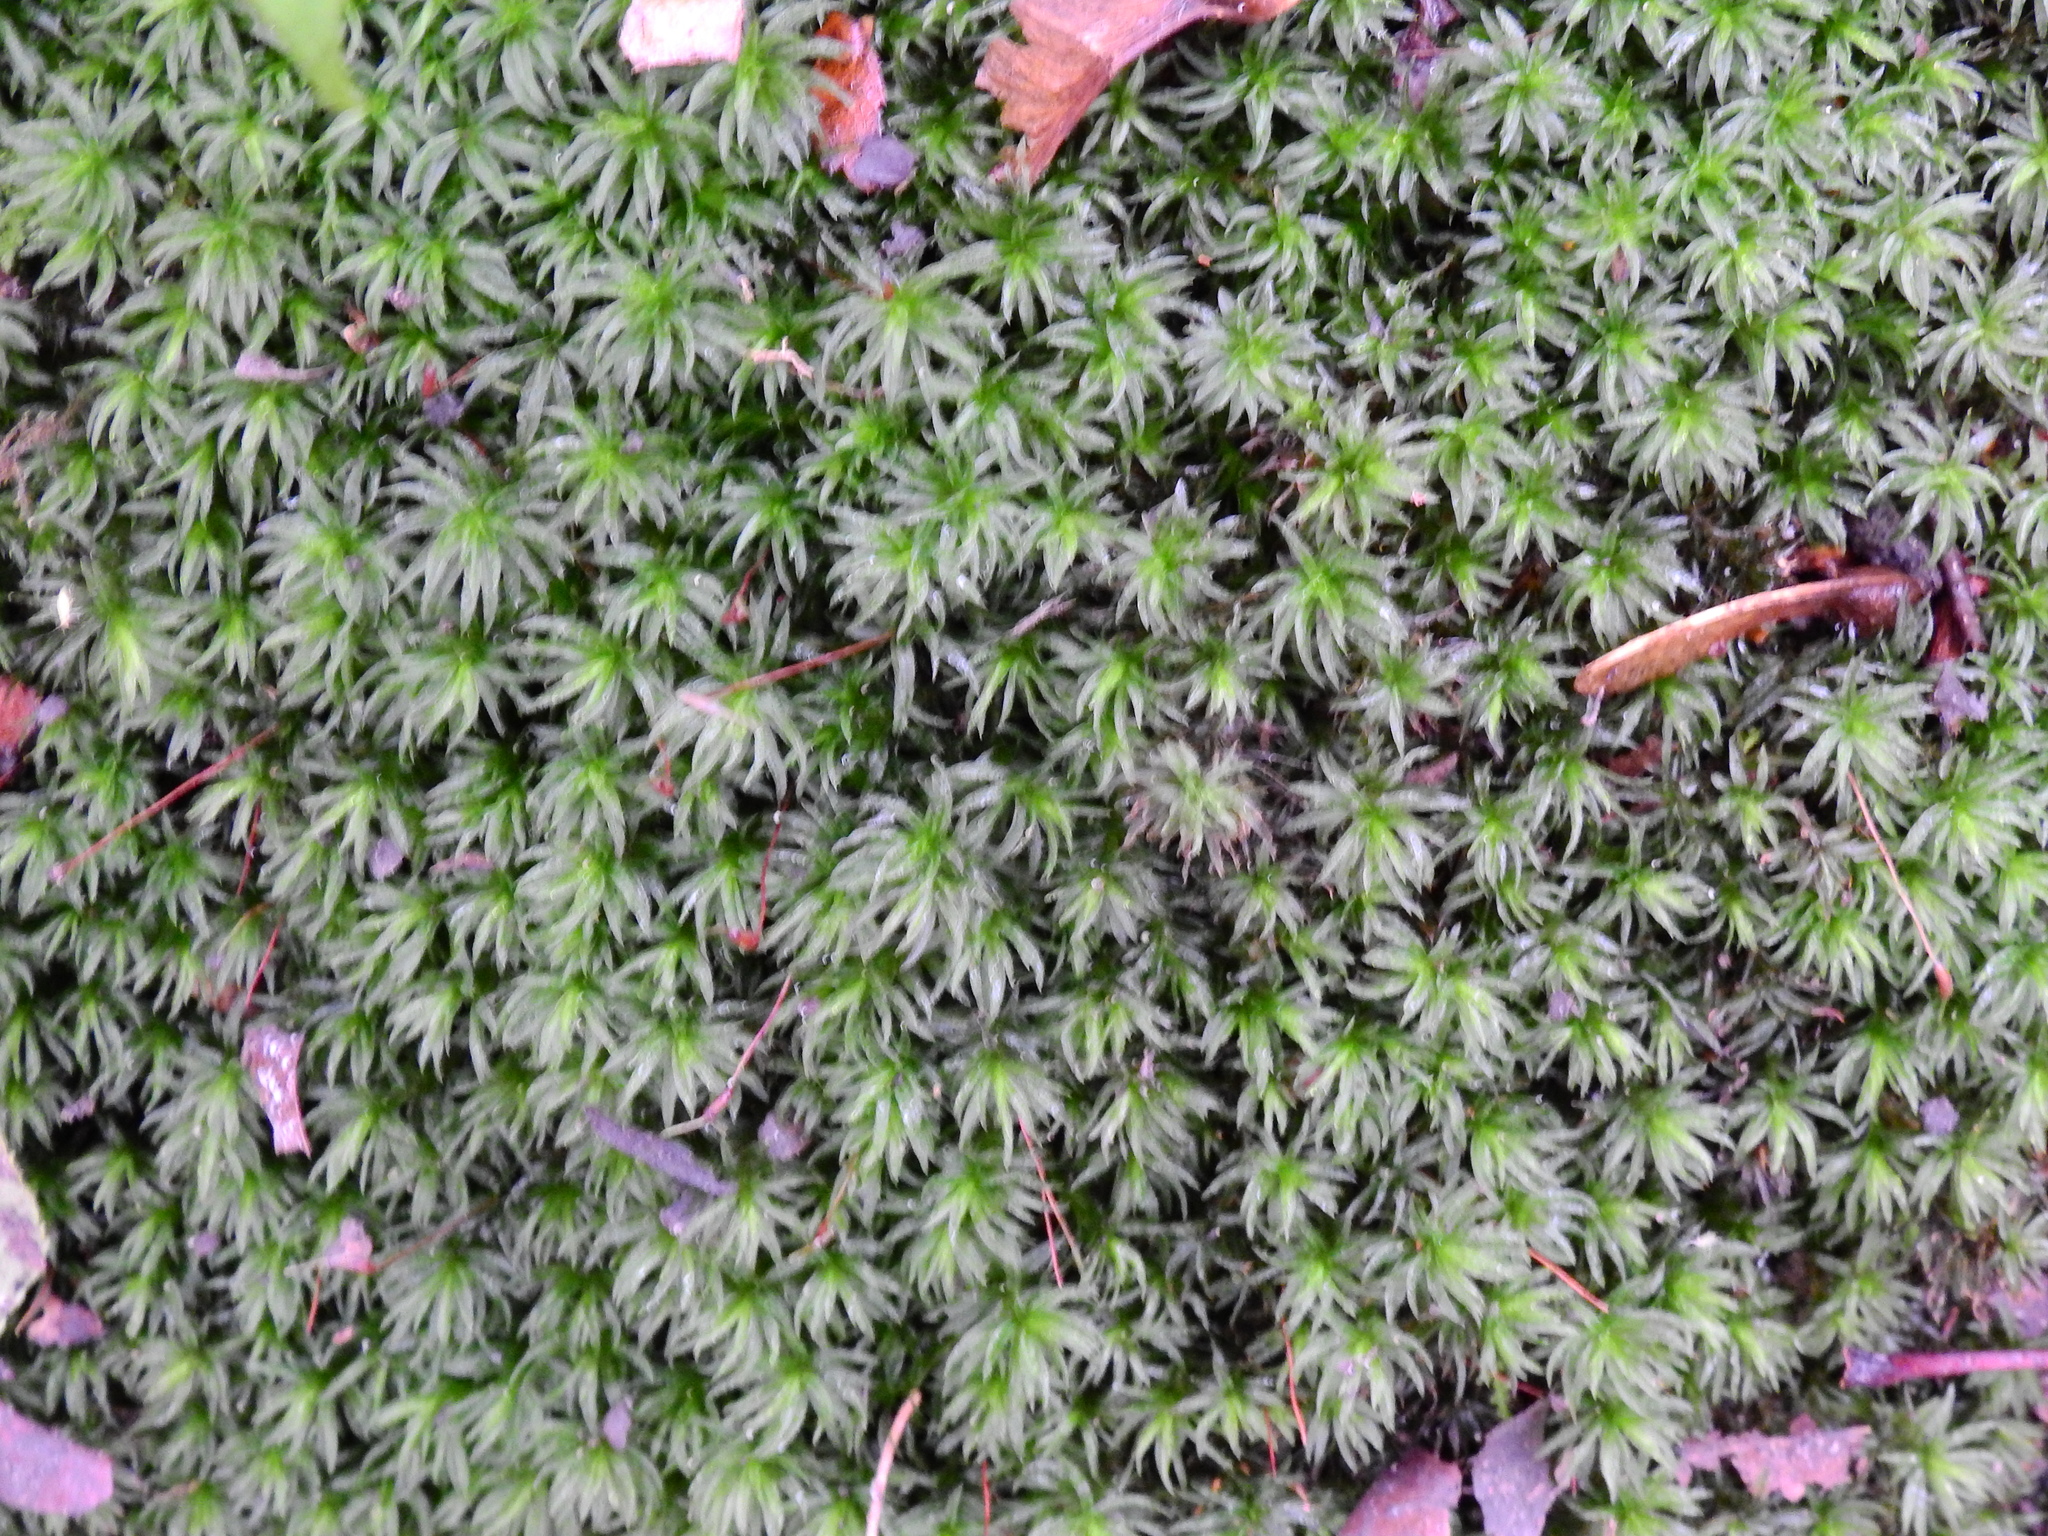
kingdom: Plantae
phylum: Bryophyta
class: Polytrichopsida
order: Polytrichales
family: Polytrichaceae
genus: Atrichum
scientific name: Atrichum undulatum
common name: Common smoothcap
